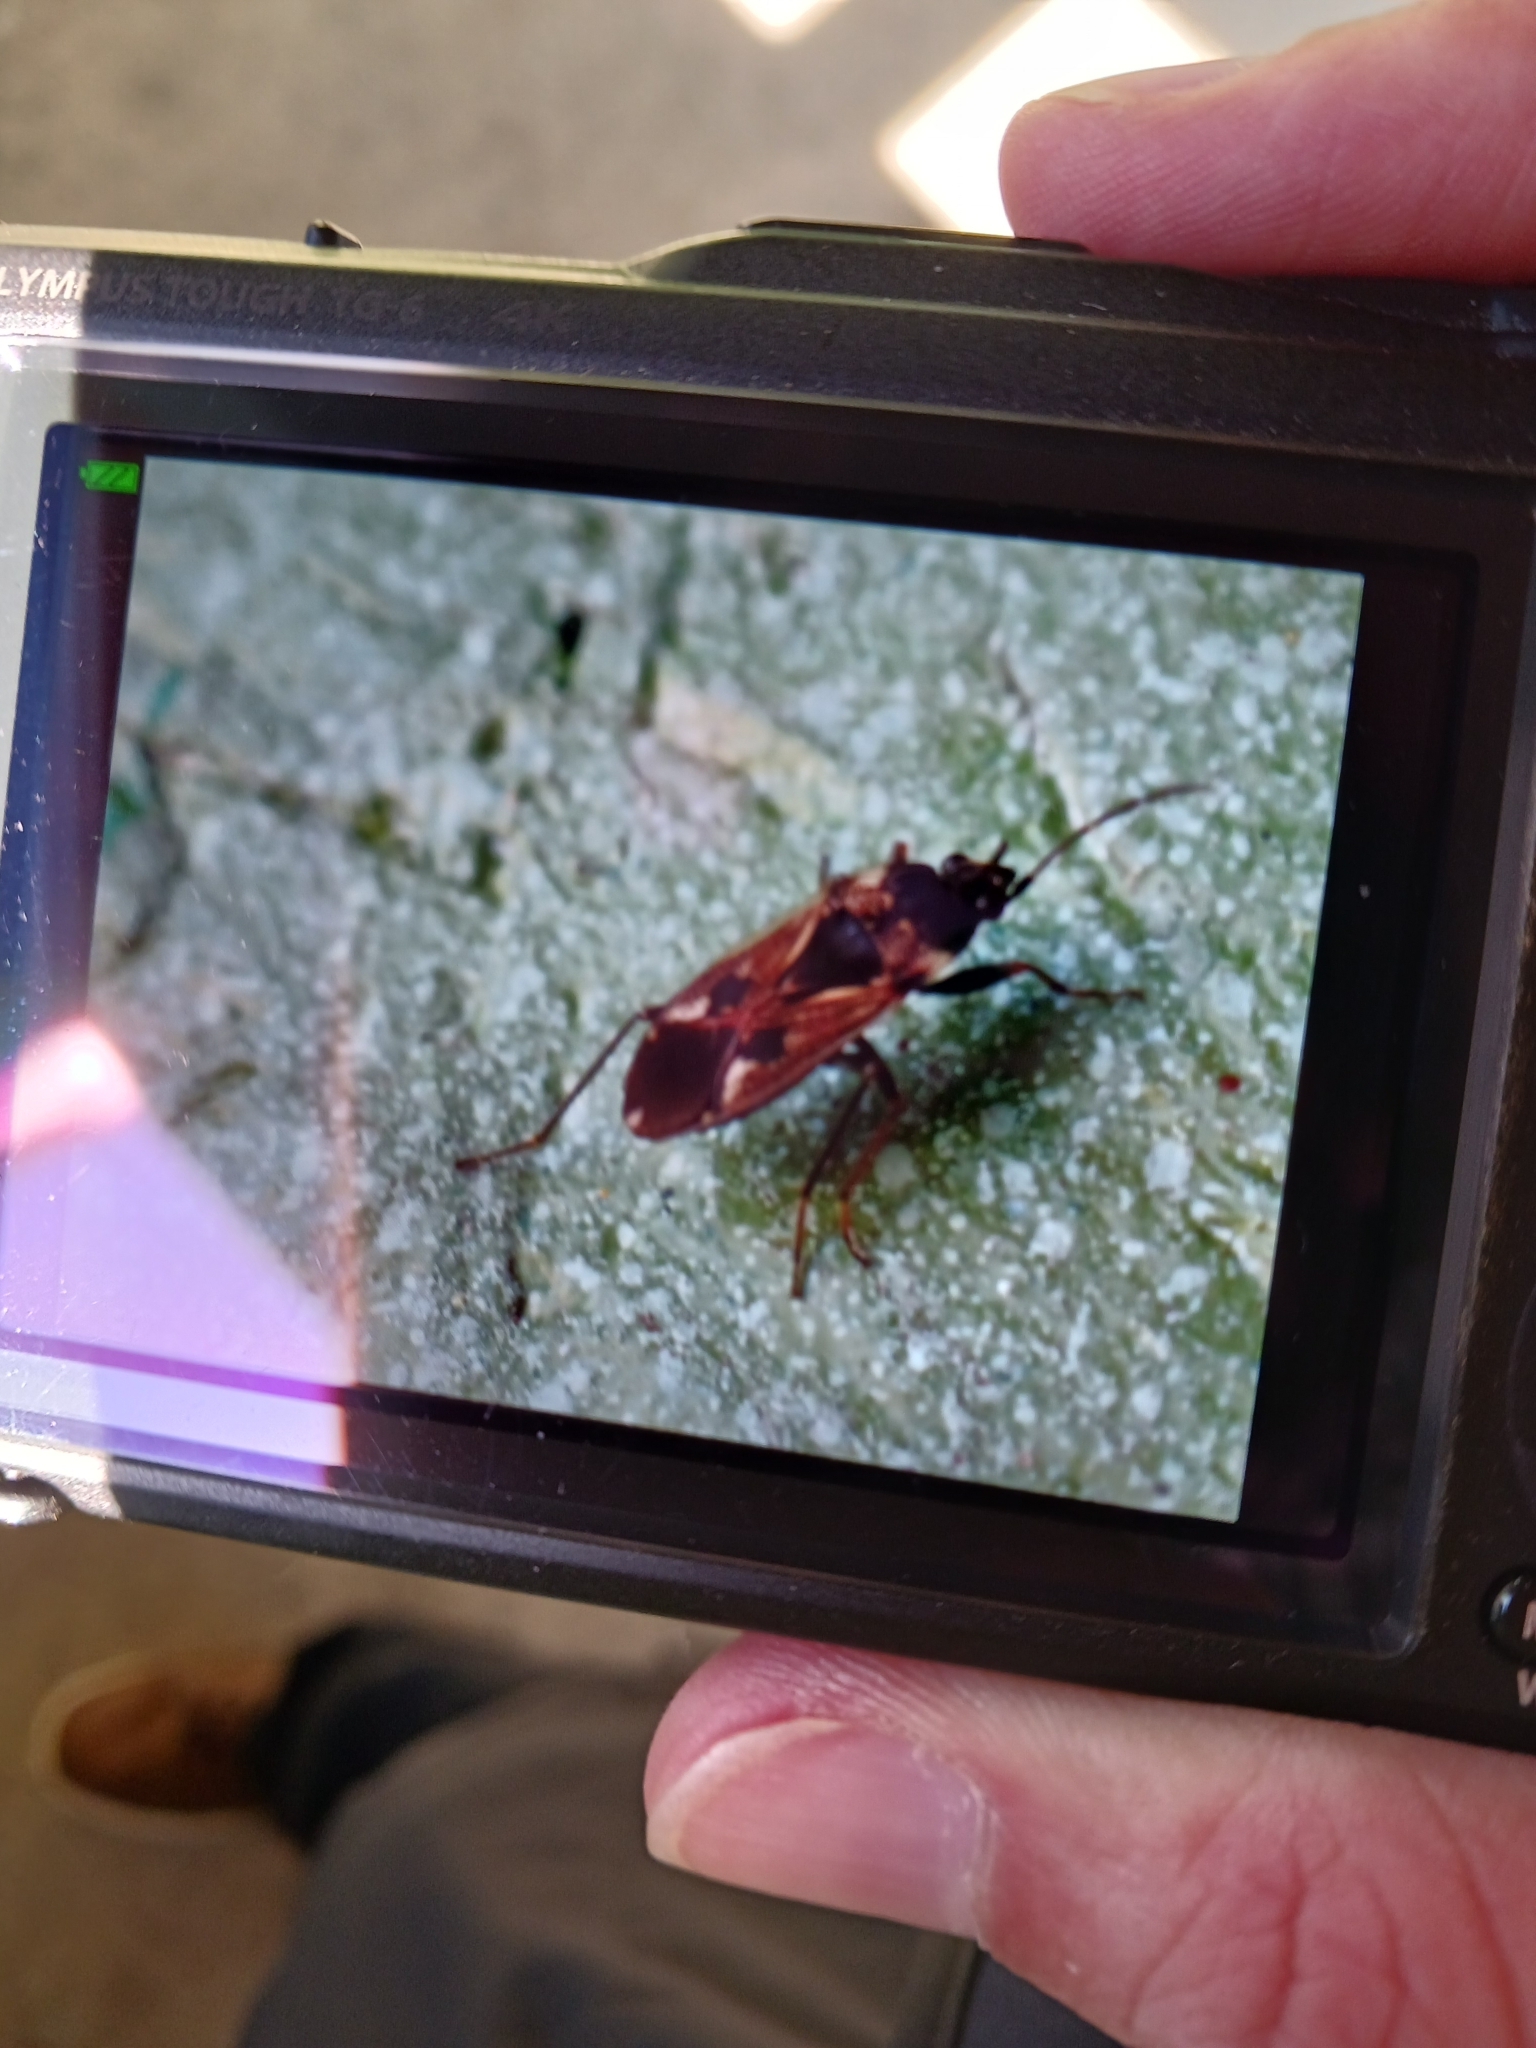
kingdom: Animalia
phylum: Arthropoda
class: Insecta
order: Hemiptera
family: Rhyparochromidae
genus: Rhyparochromus
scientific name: Rhyparochromus vulgaris
